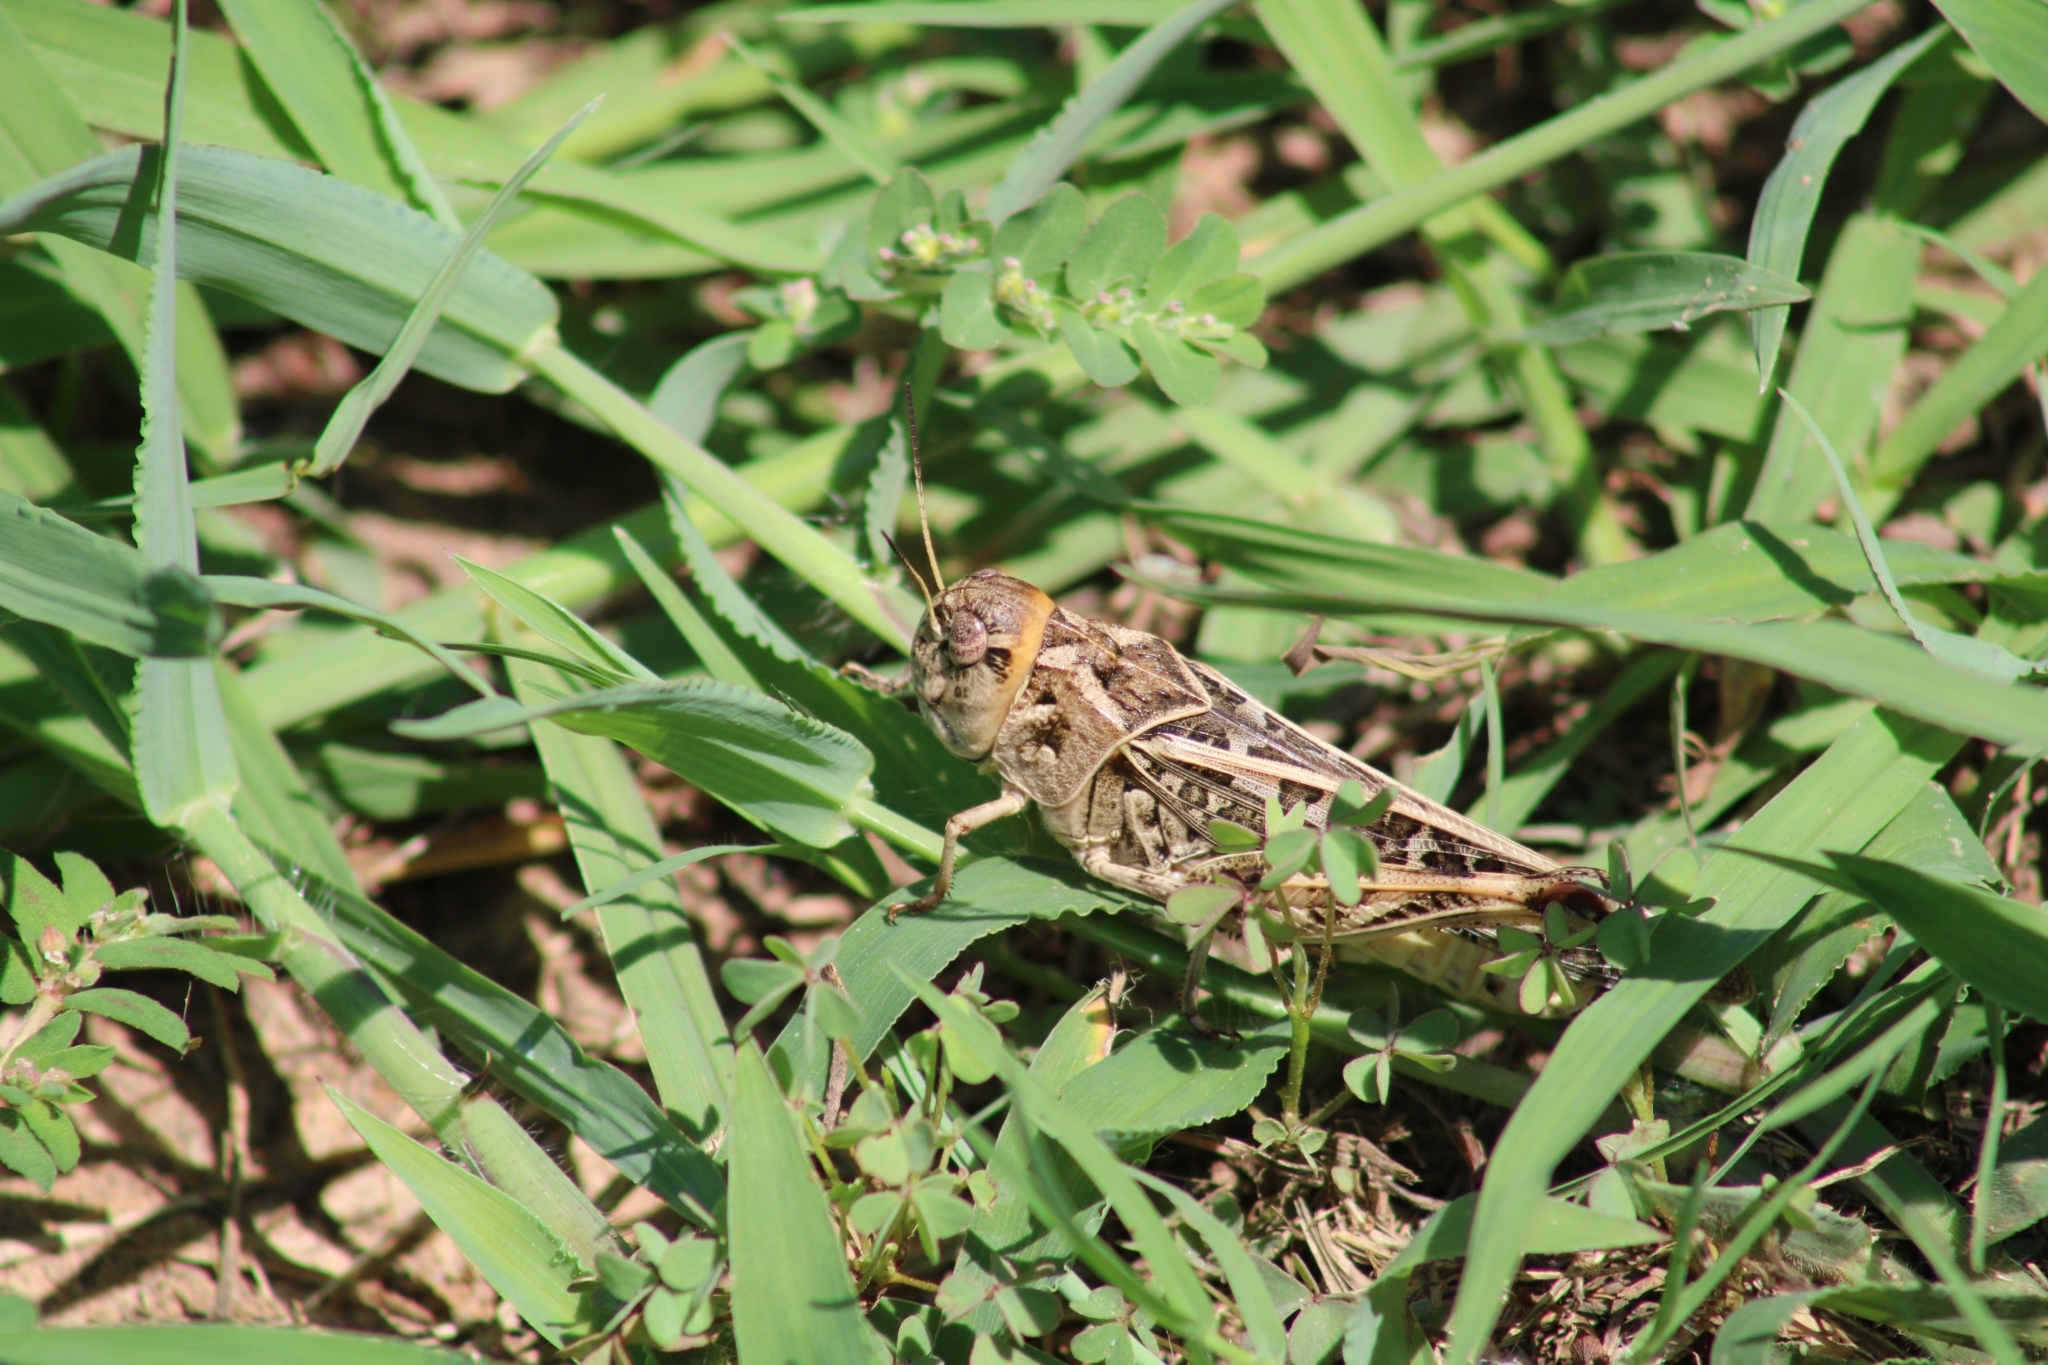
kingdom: Animalia
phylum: Arthropoda
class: Insecta
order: Orthoptera
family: Acrididae
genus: Hippiscus
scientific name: Hippiscus ocelote
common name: Wrinkled grasshopper
